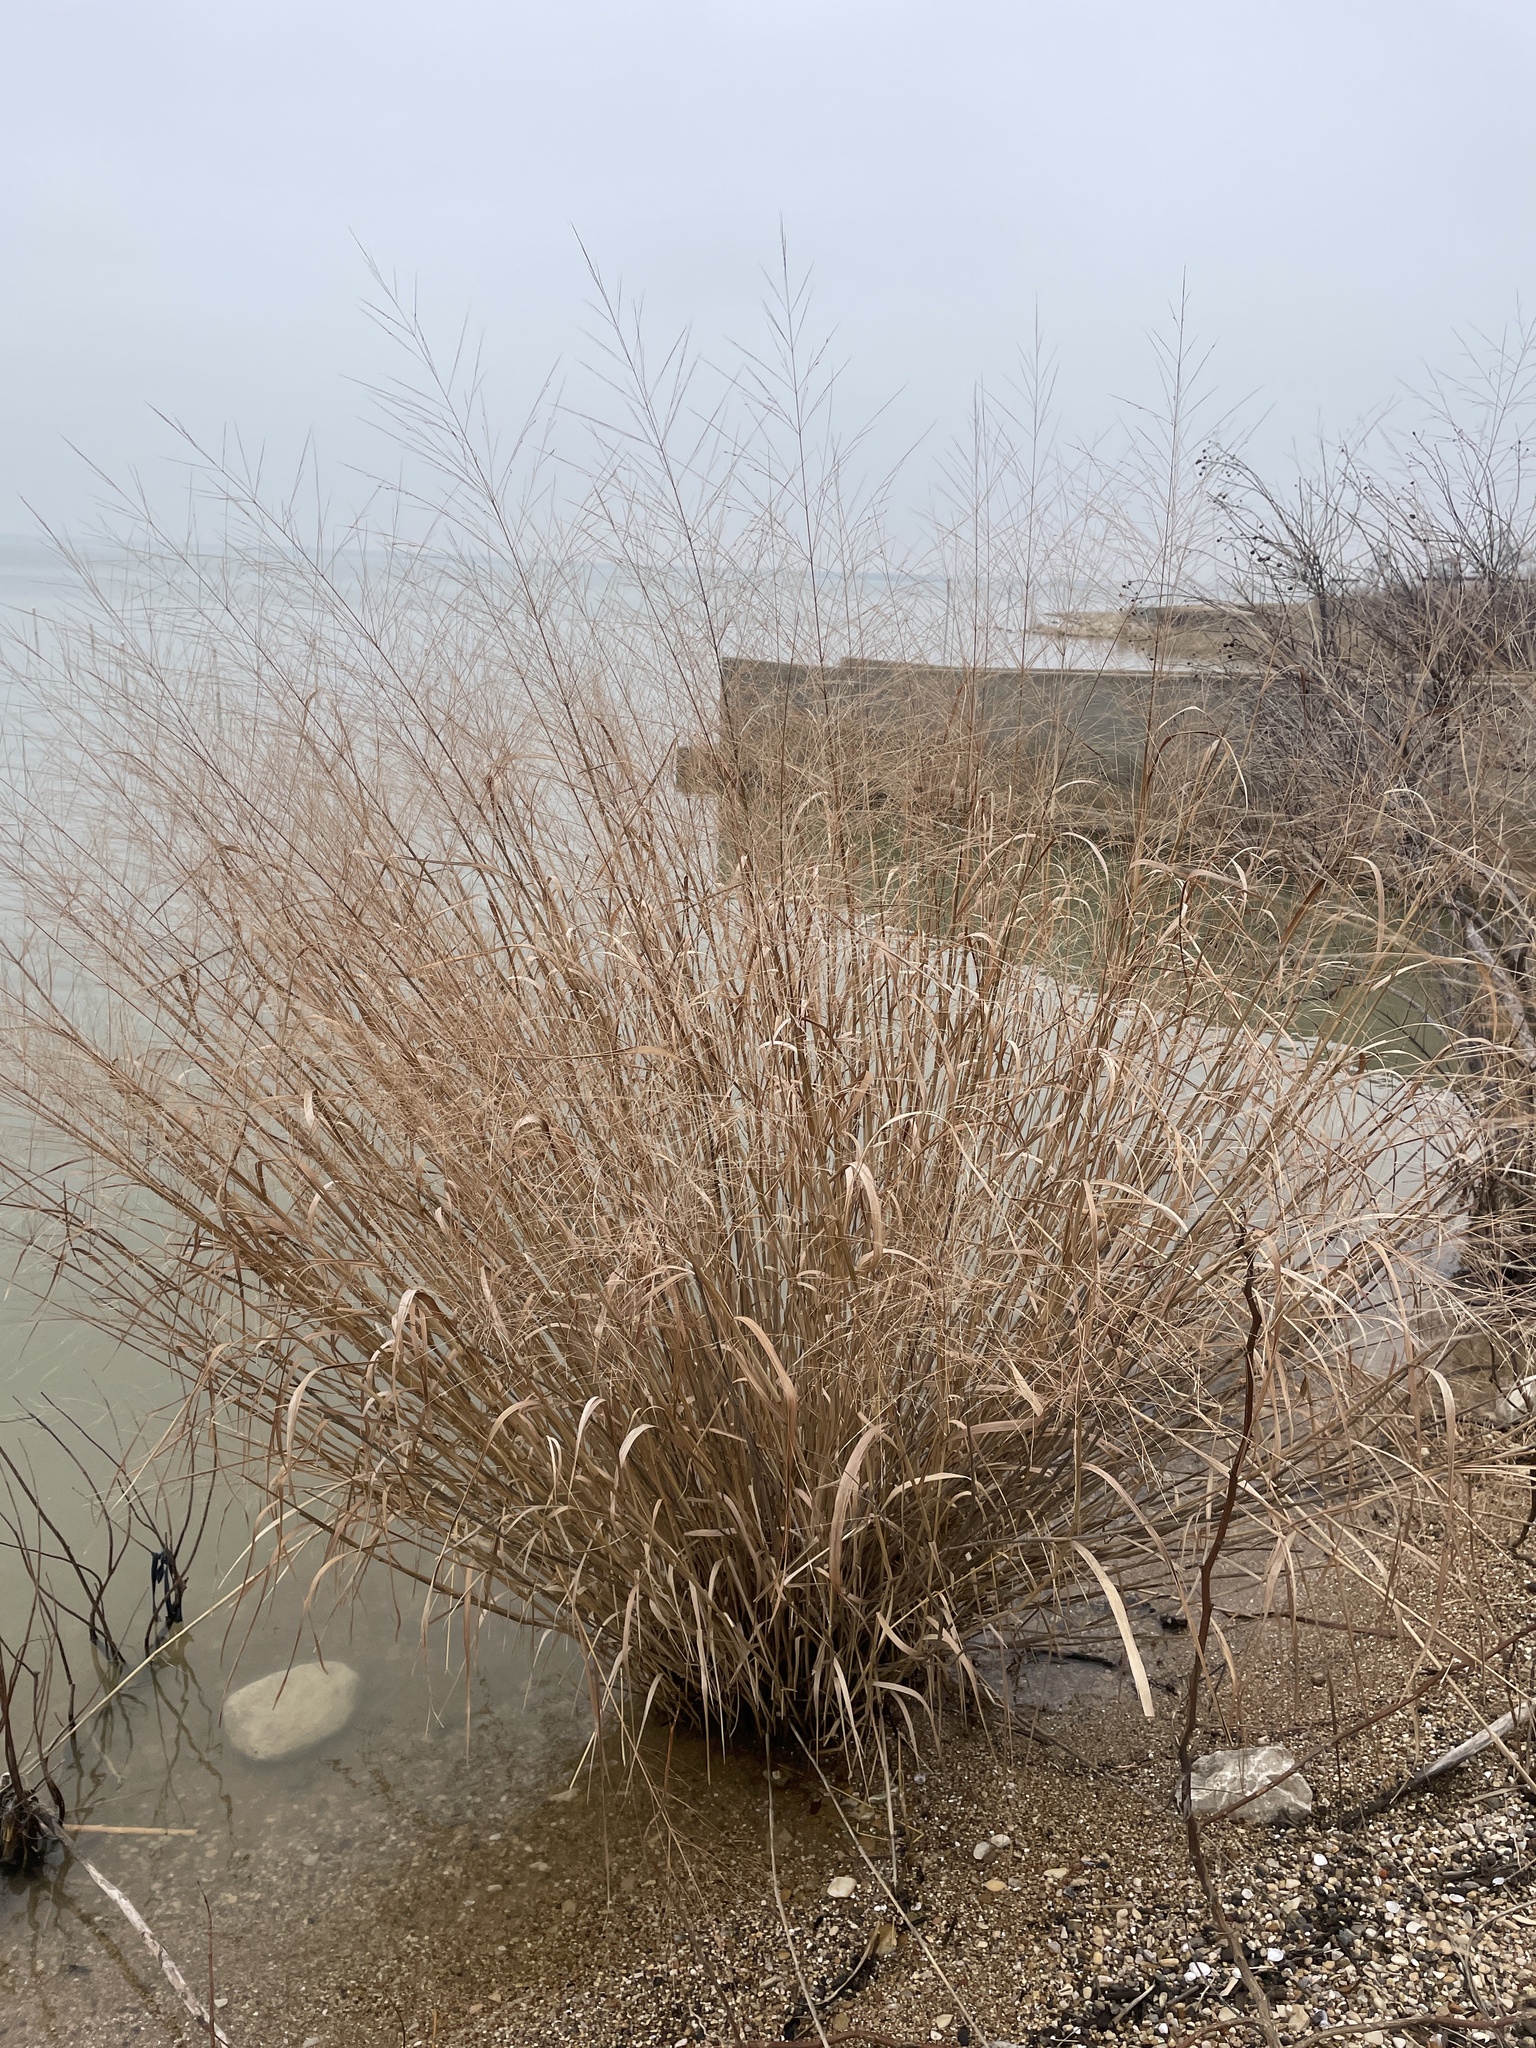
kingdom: Plantae
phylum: Tracheophyta
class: Liliopsida
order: Poales
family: Poaceae
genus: Panicum
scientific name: Panicum virgatum
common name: Switchgrass
